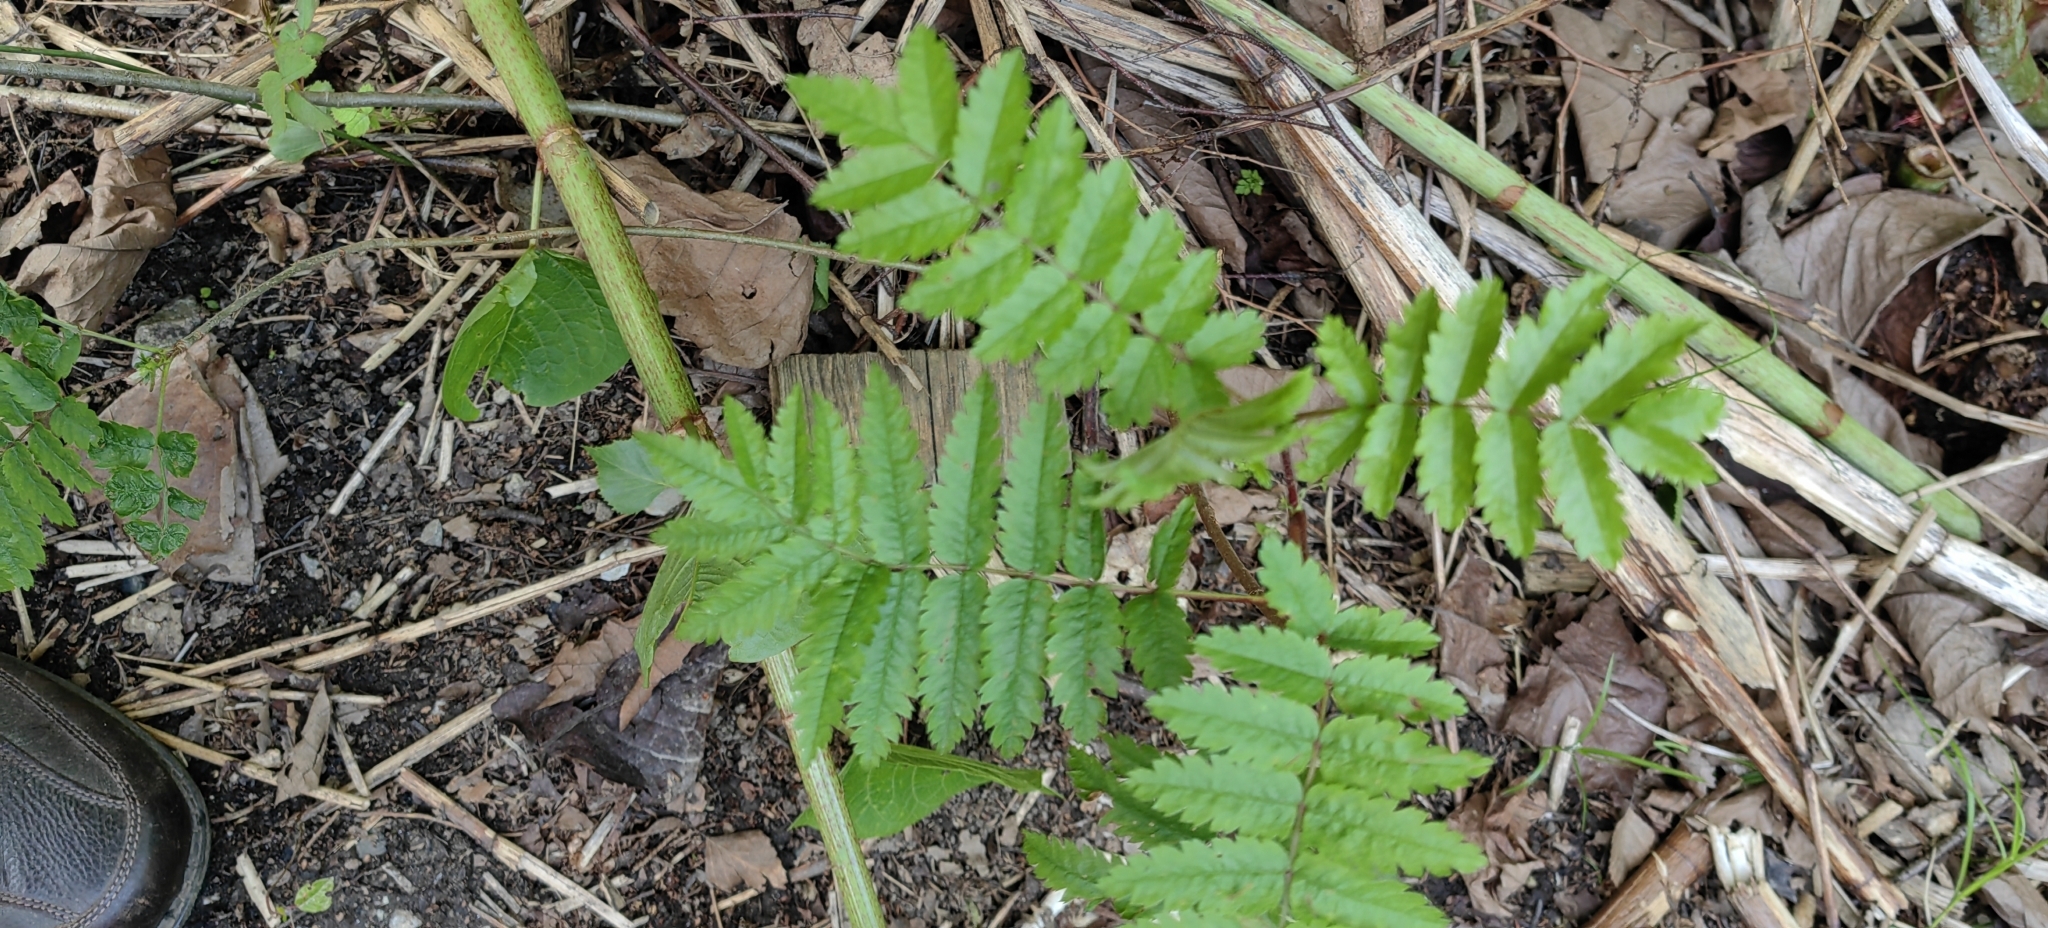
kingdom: Plantae
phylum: Tracheophyta
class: Magnoliopsida
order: Rosales
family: Rosaceae
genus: Sorbus
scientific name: Sorbus aucuparia
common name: Rowan
